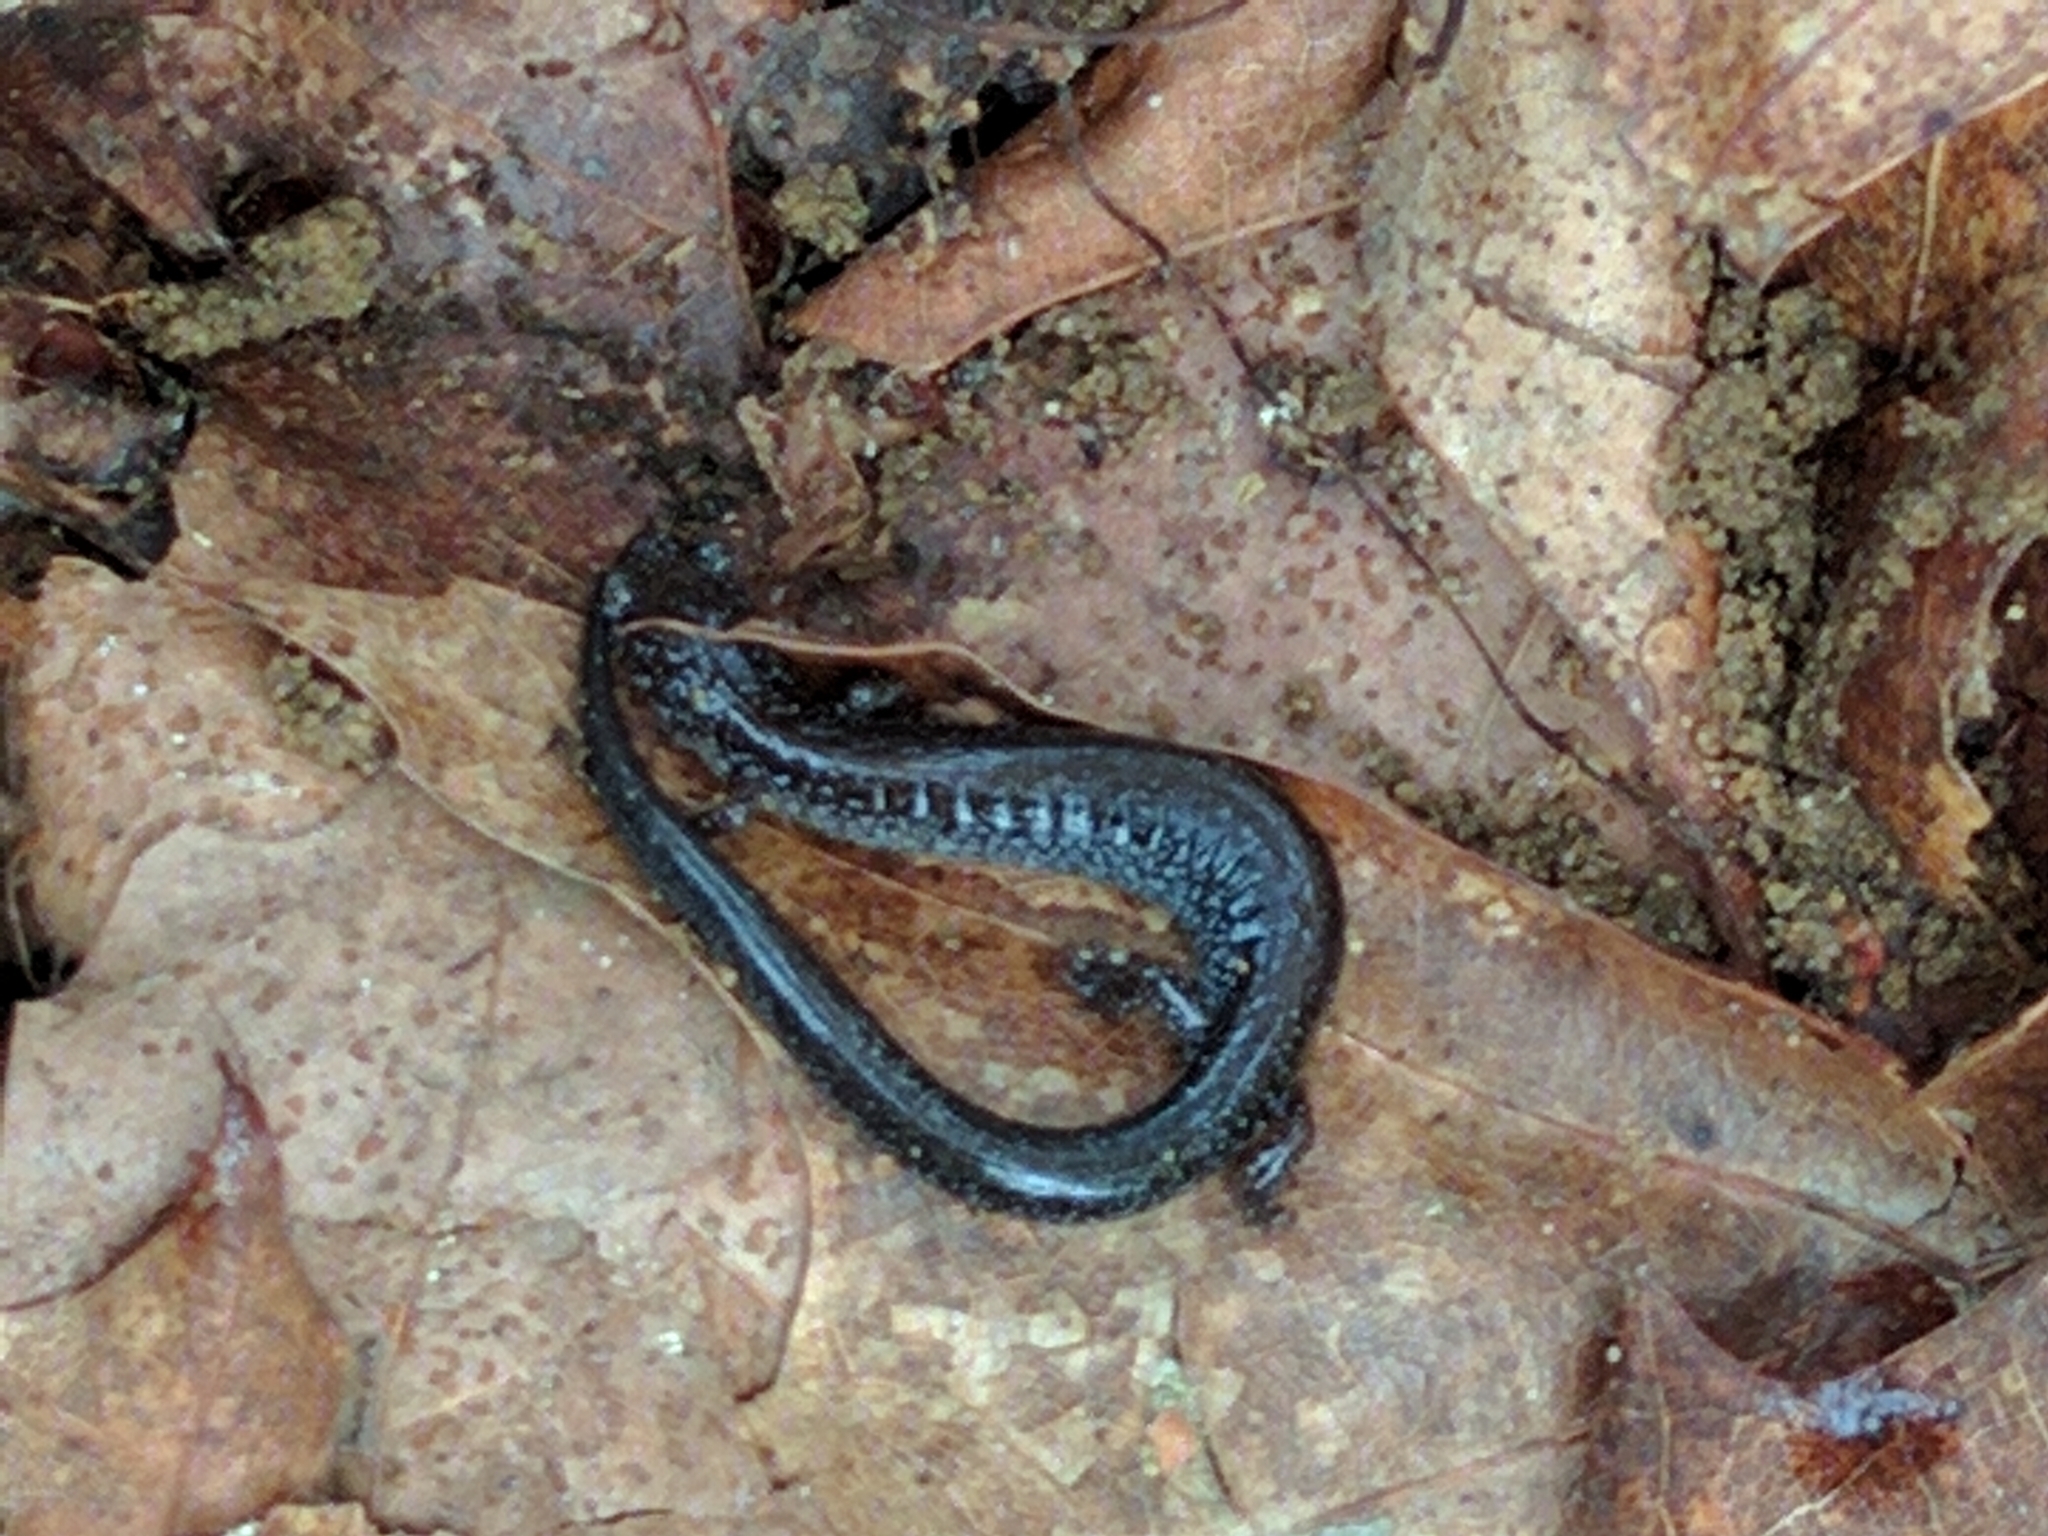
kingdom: Animalia
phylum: Chordata
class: Amphibia
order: Caudata
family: Plethodontidae
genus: Plethodon
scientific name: Plethodon cinereus
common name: Redback salamander
